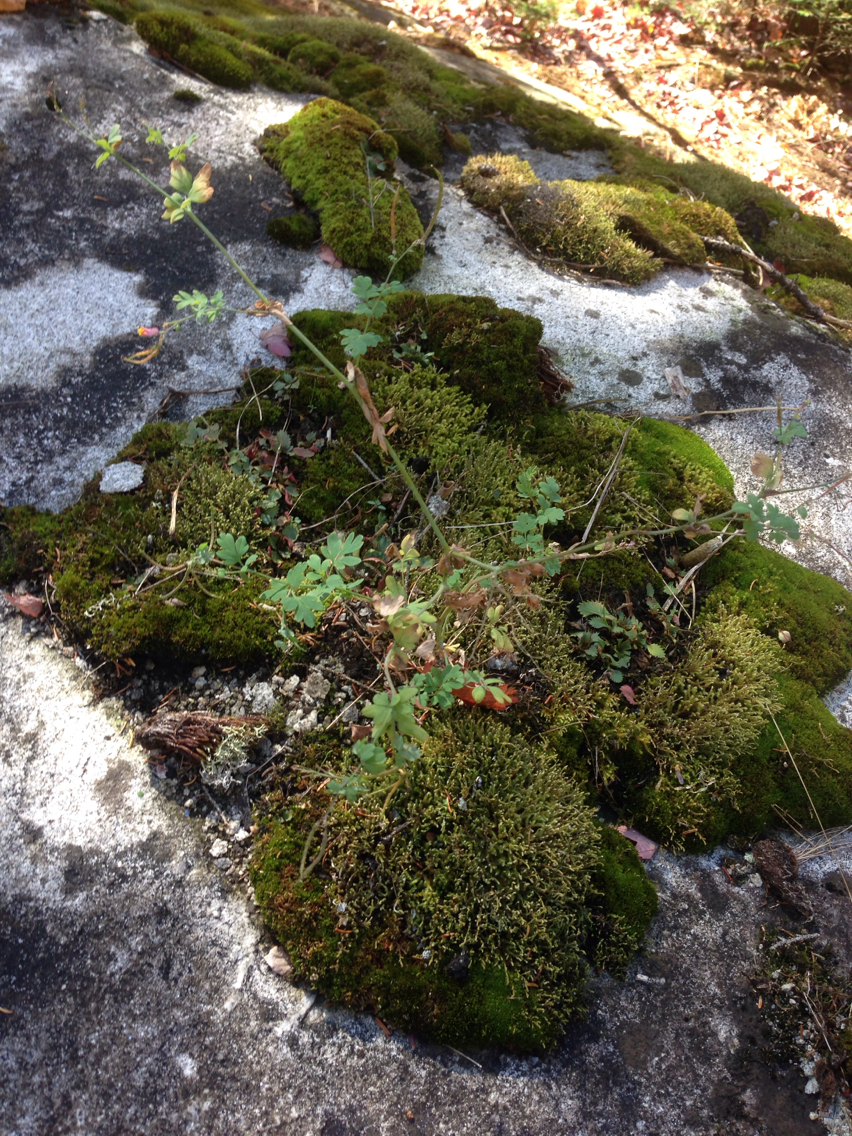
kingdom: Plantae
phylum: Tracheophyta
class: Magnoliopsida
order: Ranunculales
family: Papaveraceae
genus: Capnoides
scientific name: Capnoides sempervirens
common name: Rock harlequin
